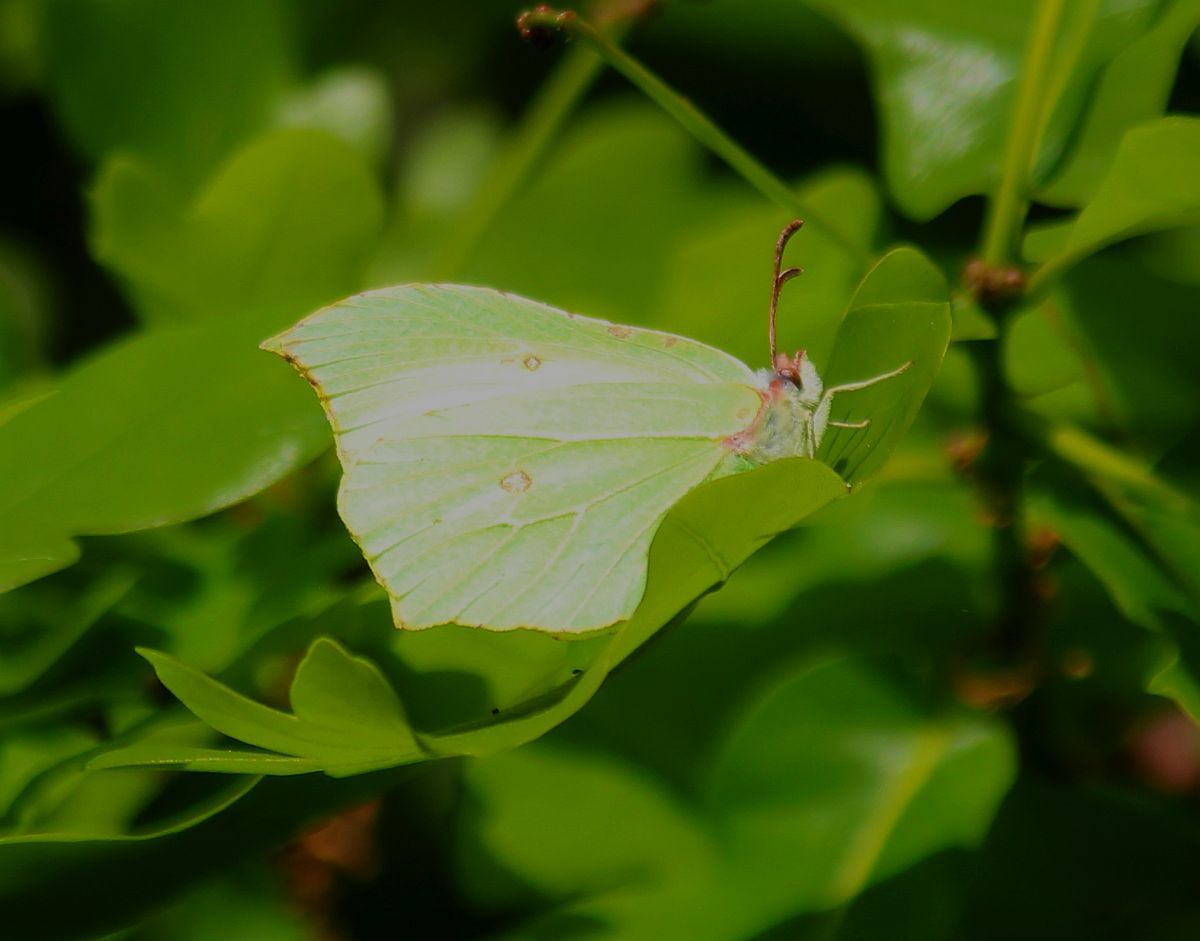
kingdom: Animalia
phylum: Arthropoda
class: Insecta
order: Lepidoptera
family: Pieridae
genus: Gonepteryx
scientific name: Gonepteryx rhamni
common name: Brimstone
